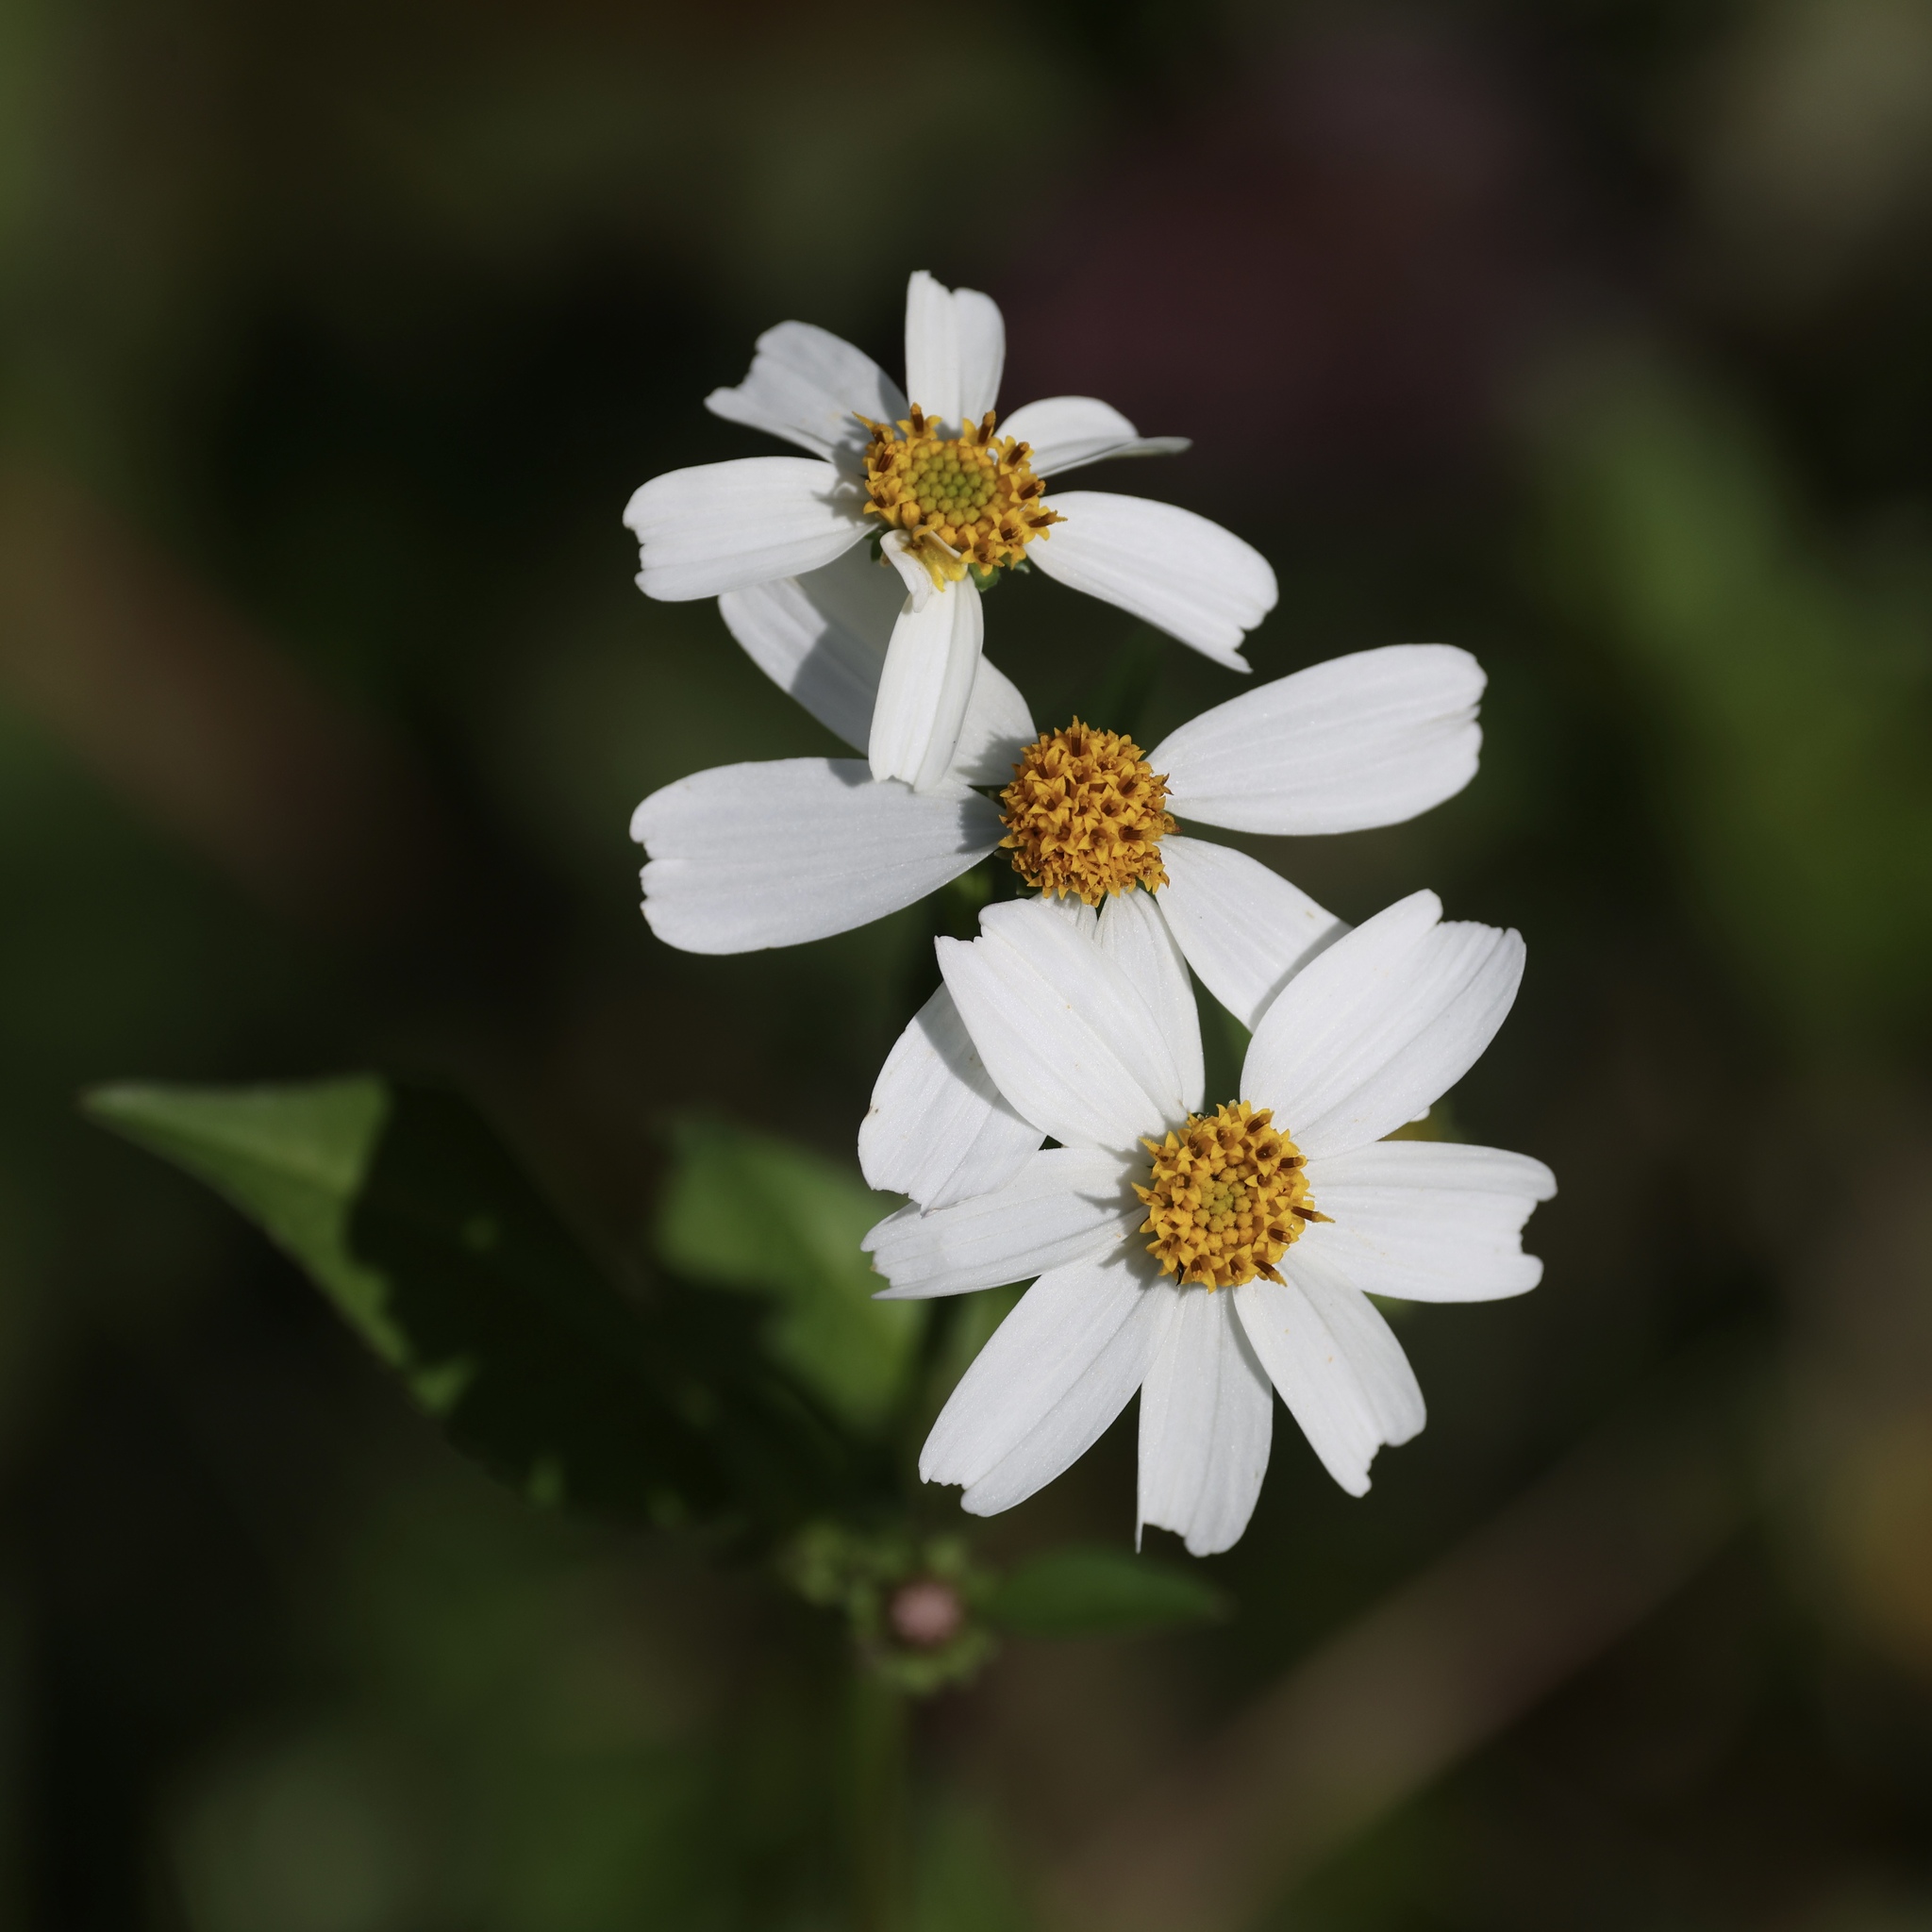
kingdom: Plantae
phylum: Tracheophyta
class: Magnoliopsida
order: Asterales
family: Asteraceae
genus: Bidens
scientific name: Bidens alba
